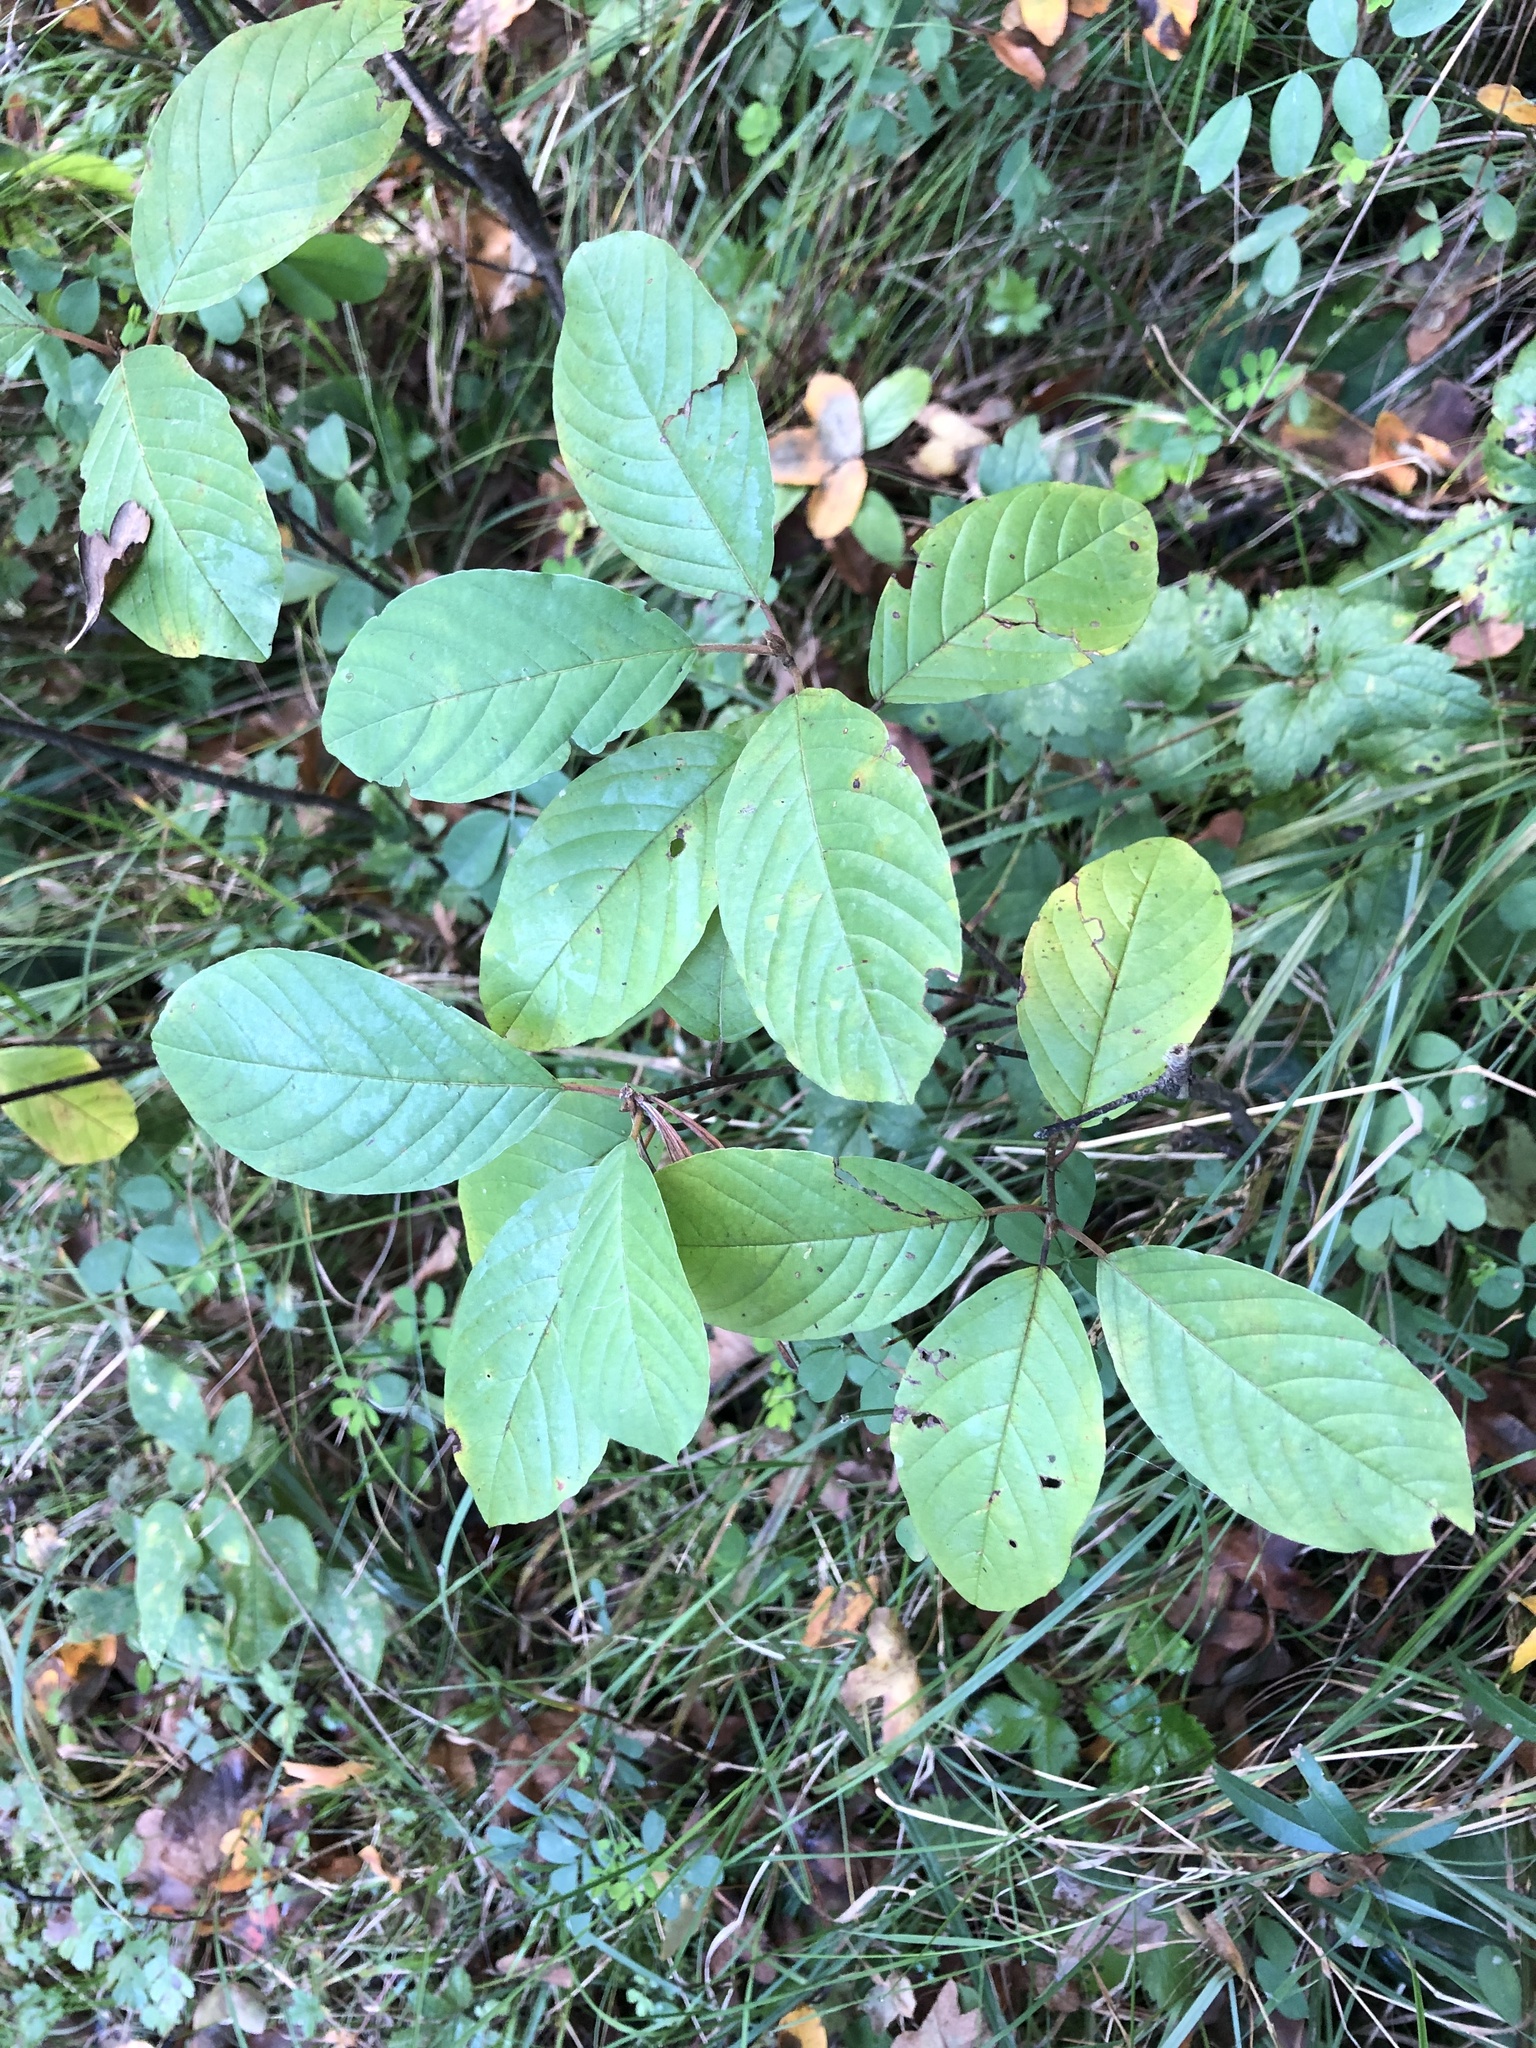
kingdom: Plantae
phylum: Tracheophyta
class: Magnoliopsida
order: Rosales
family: Rhamnaceae
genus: Frangula
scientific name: Frangula alnus
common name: Alder buckthorn
